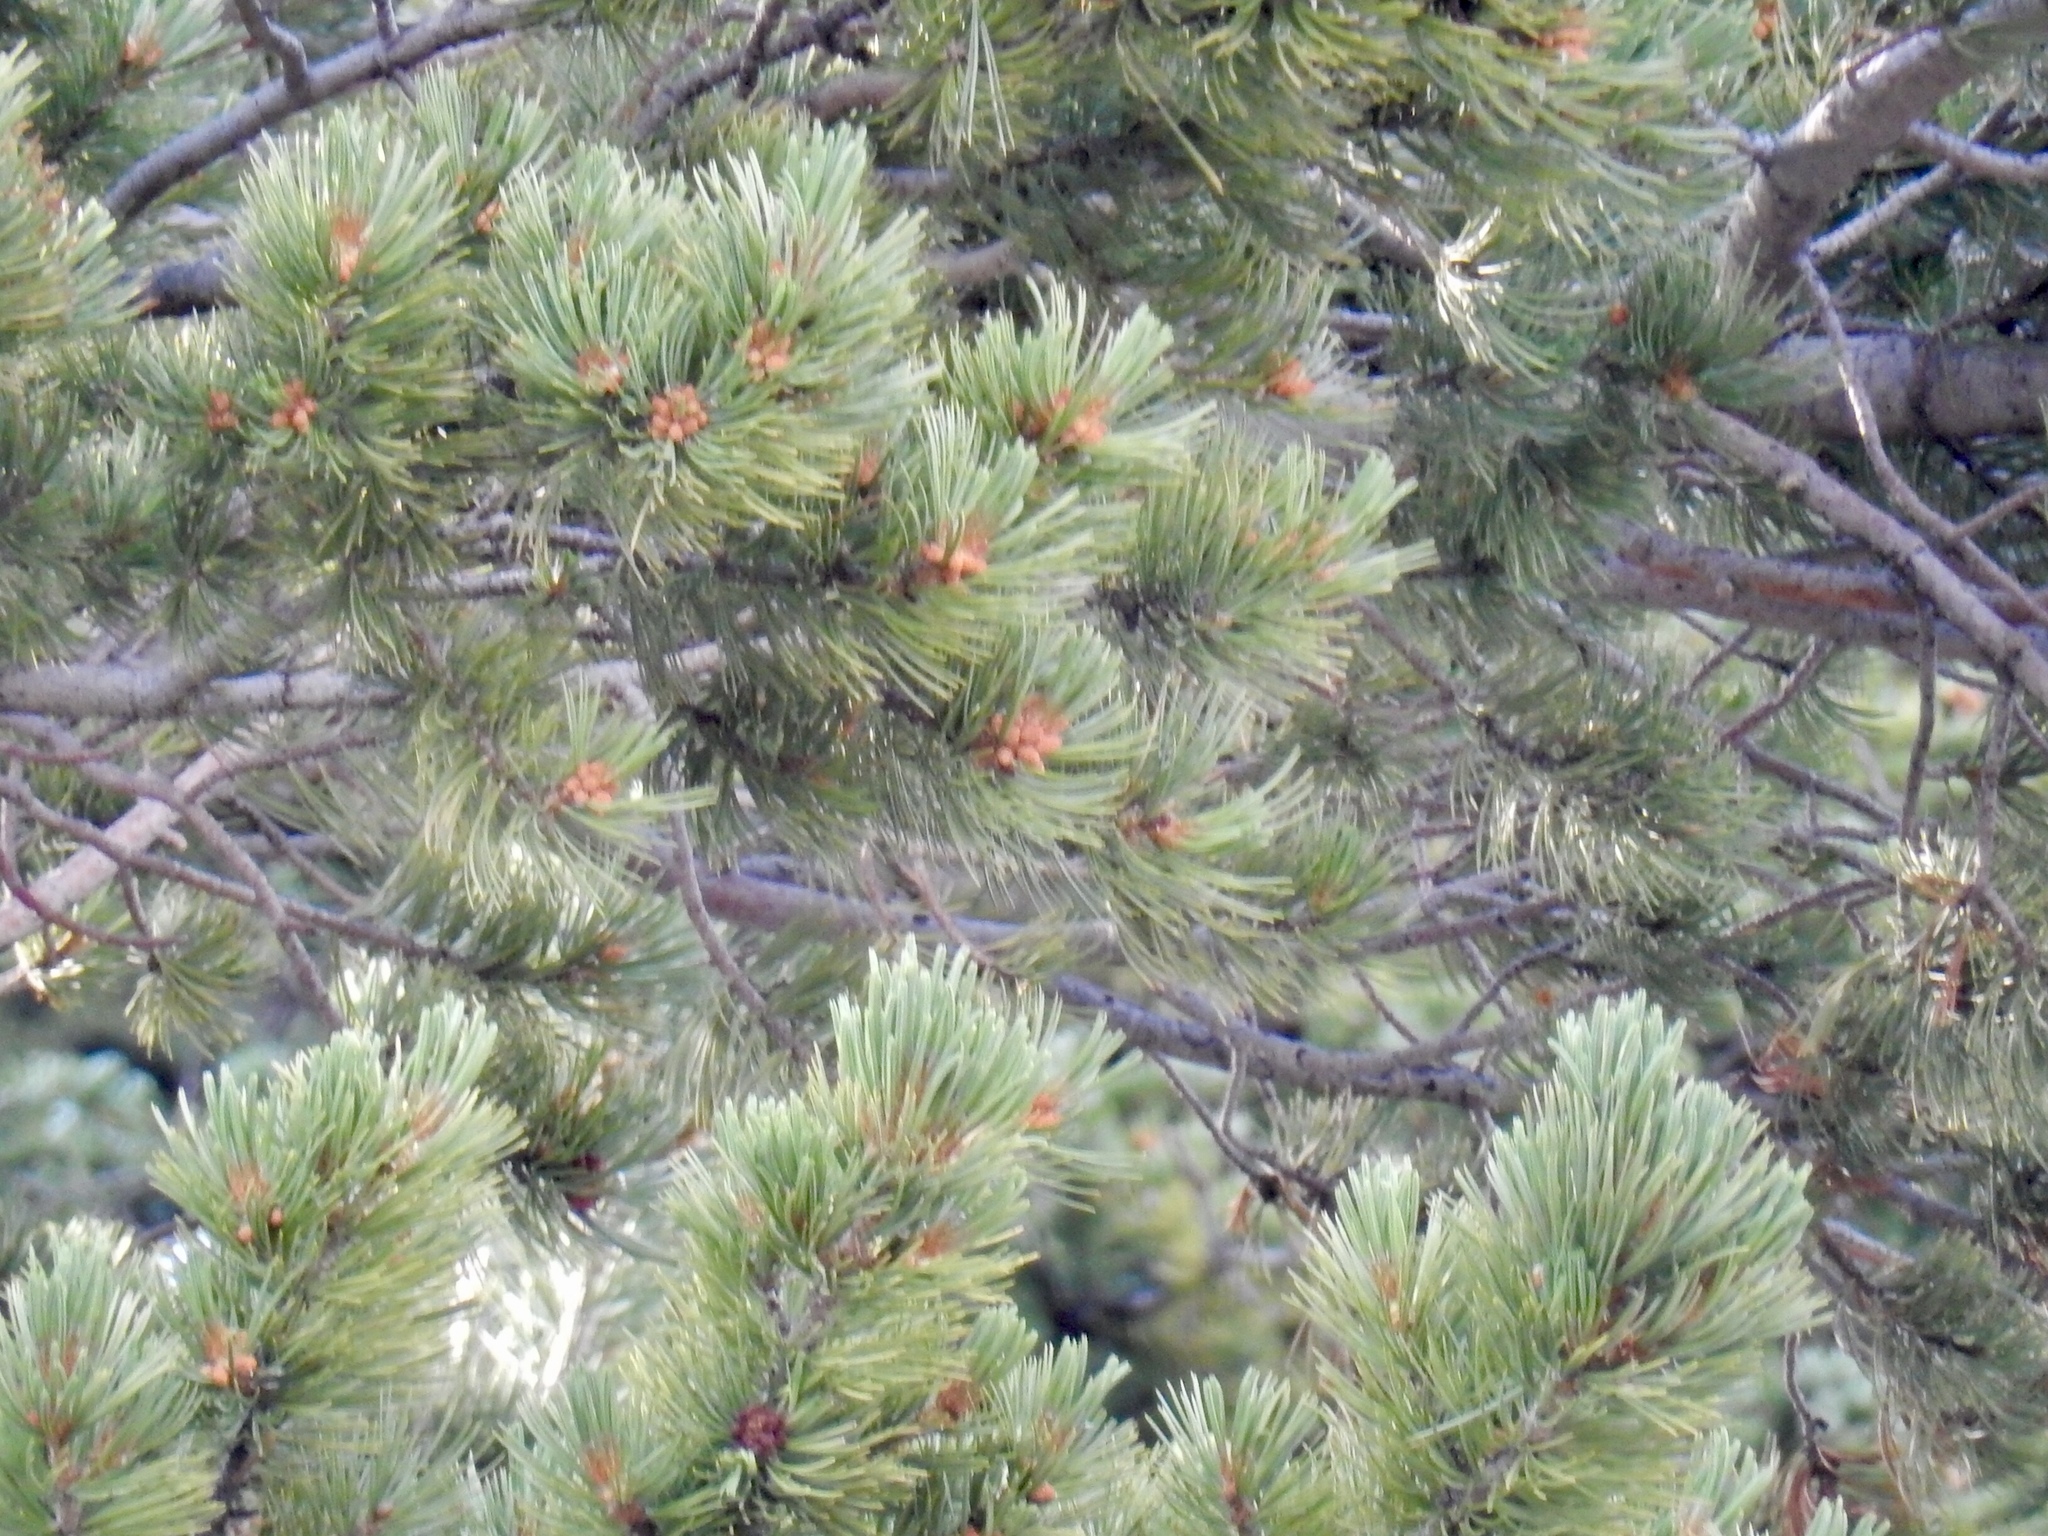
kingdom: Plantae
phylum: Tracheophyta
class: Pinopsida
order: Pinales
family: Pinaceae
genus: Pinus
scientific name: Pinus flexilis
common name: Limber pine
